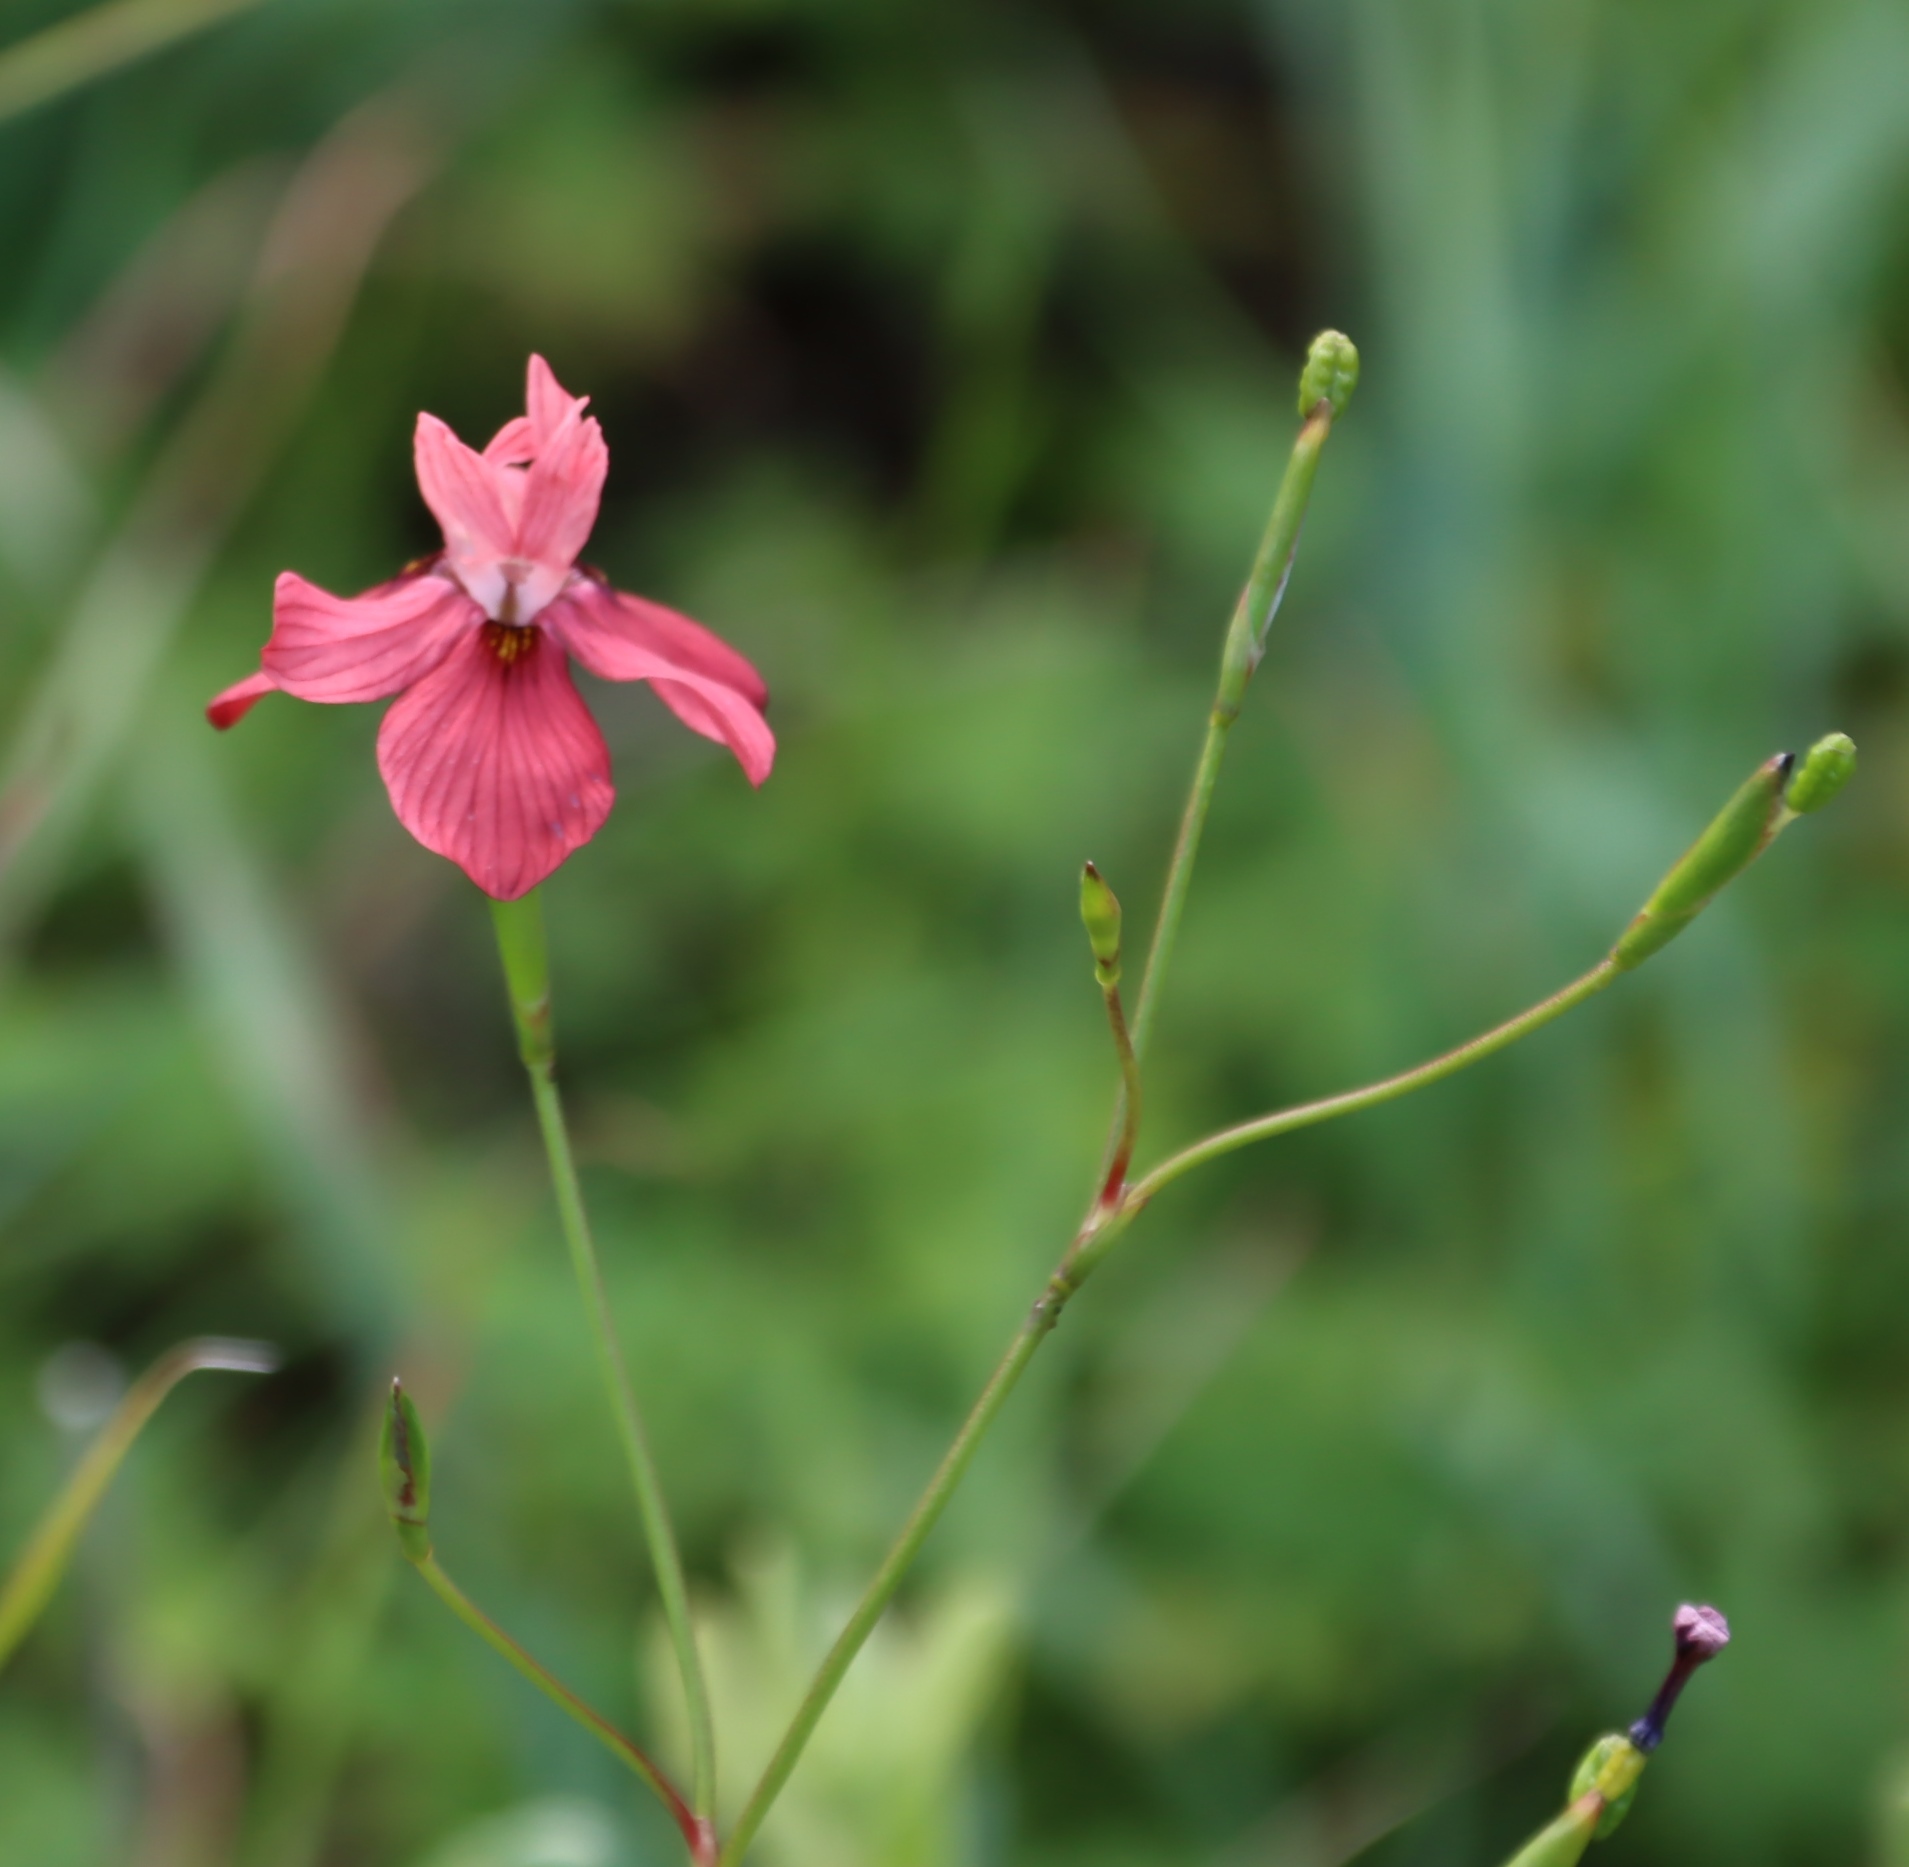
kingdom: Plantae
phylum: Tracheophyta
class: Liliopsida
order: Asparagales
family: Iridaceae
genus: Moraea
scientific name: Moraea gawleri
